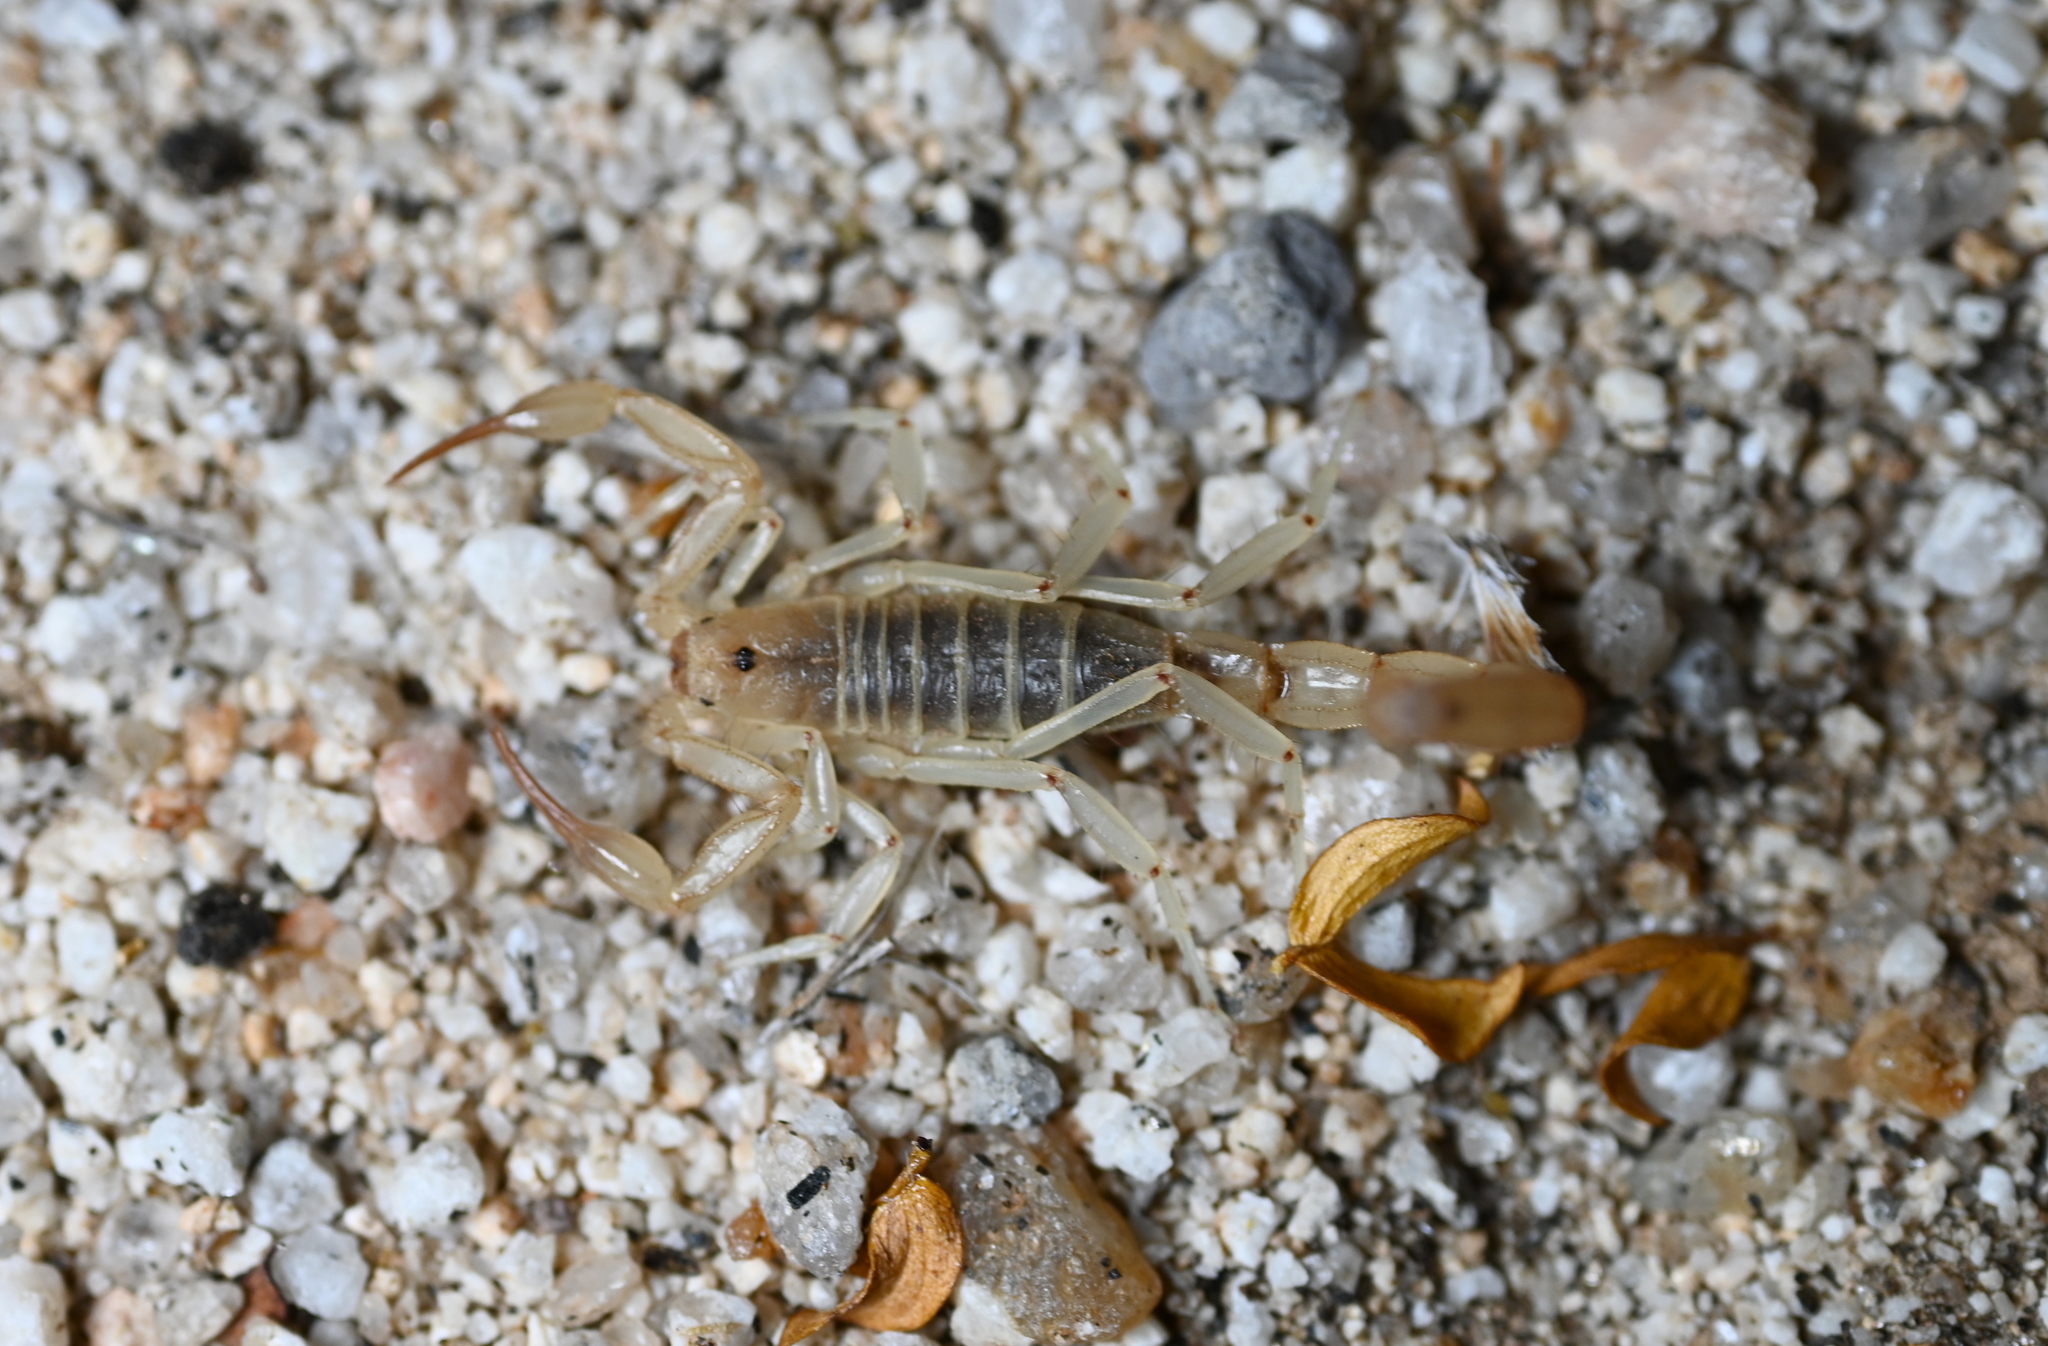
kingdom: Animalia
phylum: Arthropoda
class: Arachnida
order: Scorpiones
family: Vaejovidae
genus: Paravaejovis
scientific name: Paravaejovis confusus
